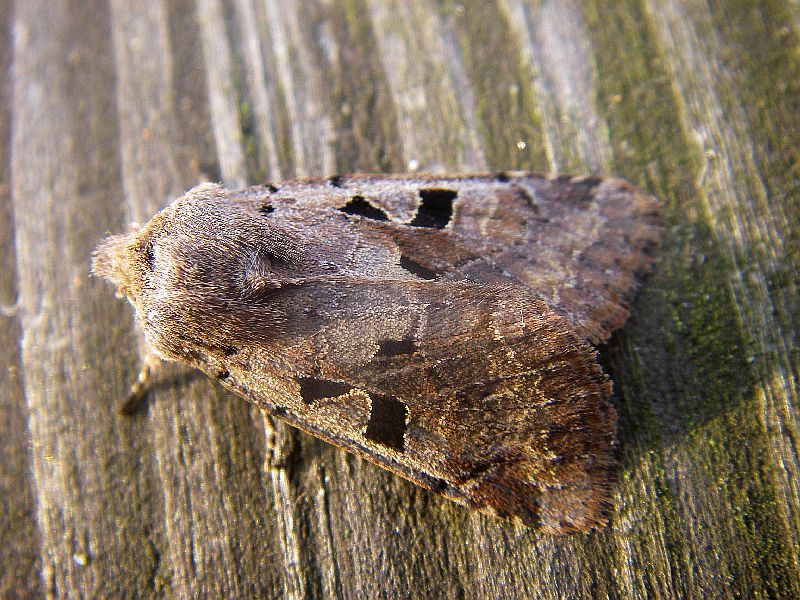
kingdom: Animalia
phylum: Arthropoda
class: Insecta
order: Lepidoptera
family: Noctuidae
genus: Orthosia
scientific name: Orthosia gothica
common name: Hebrew character
